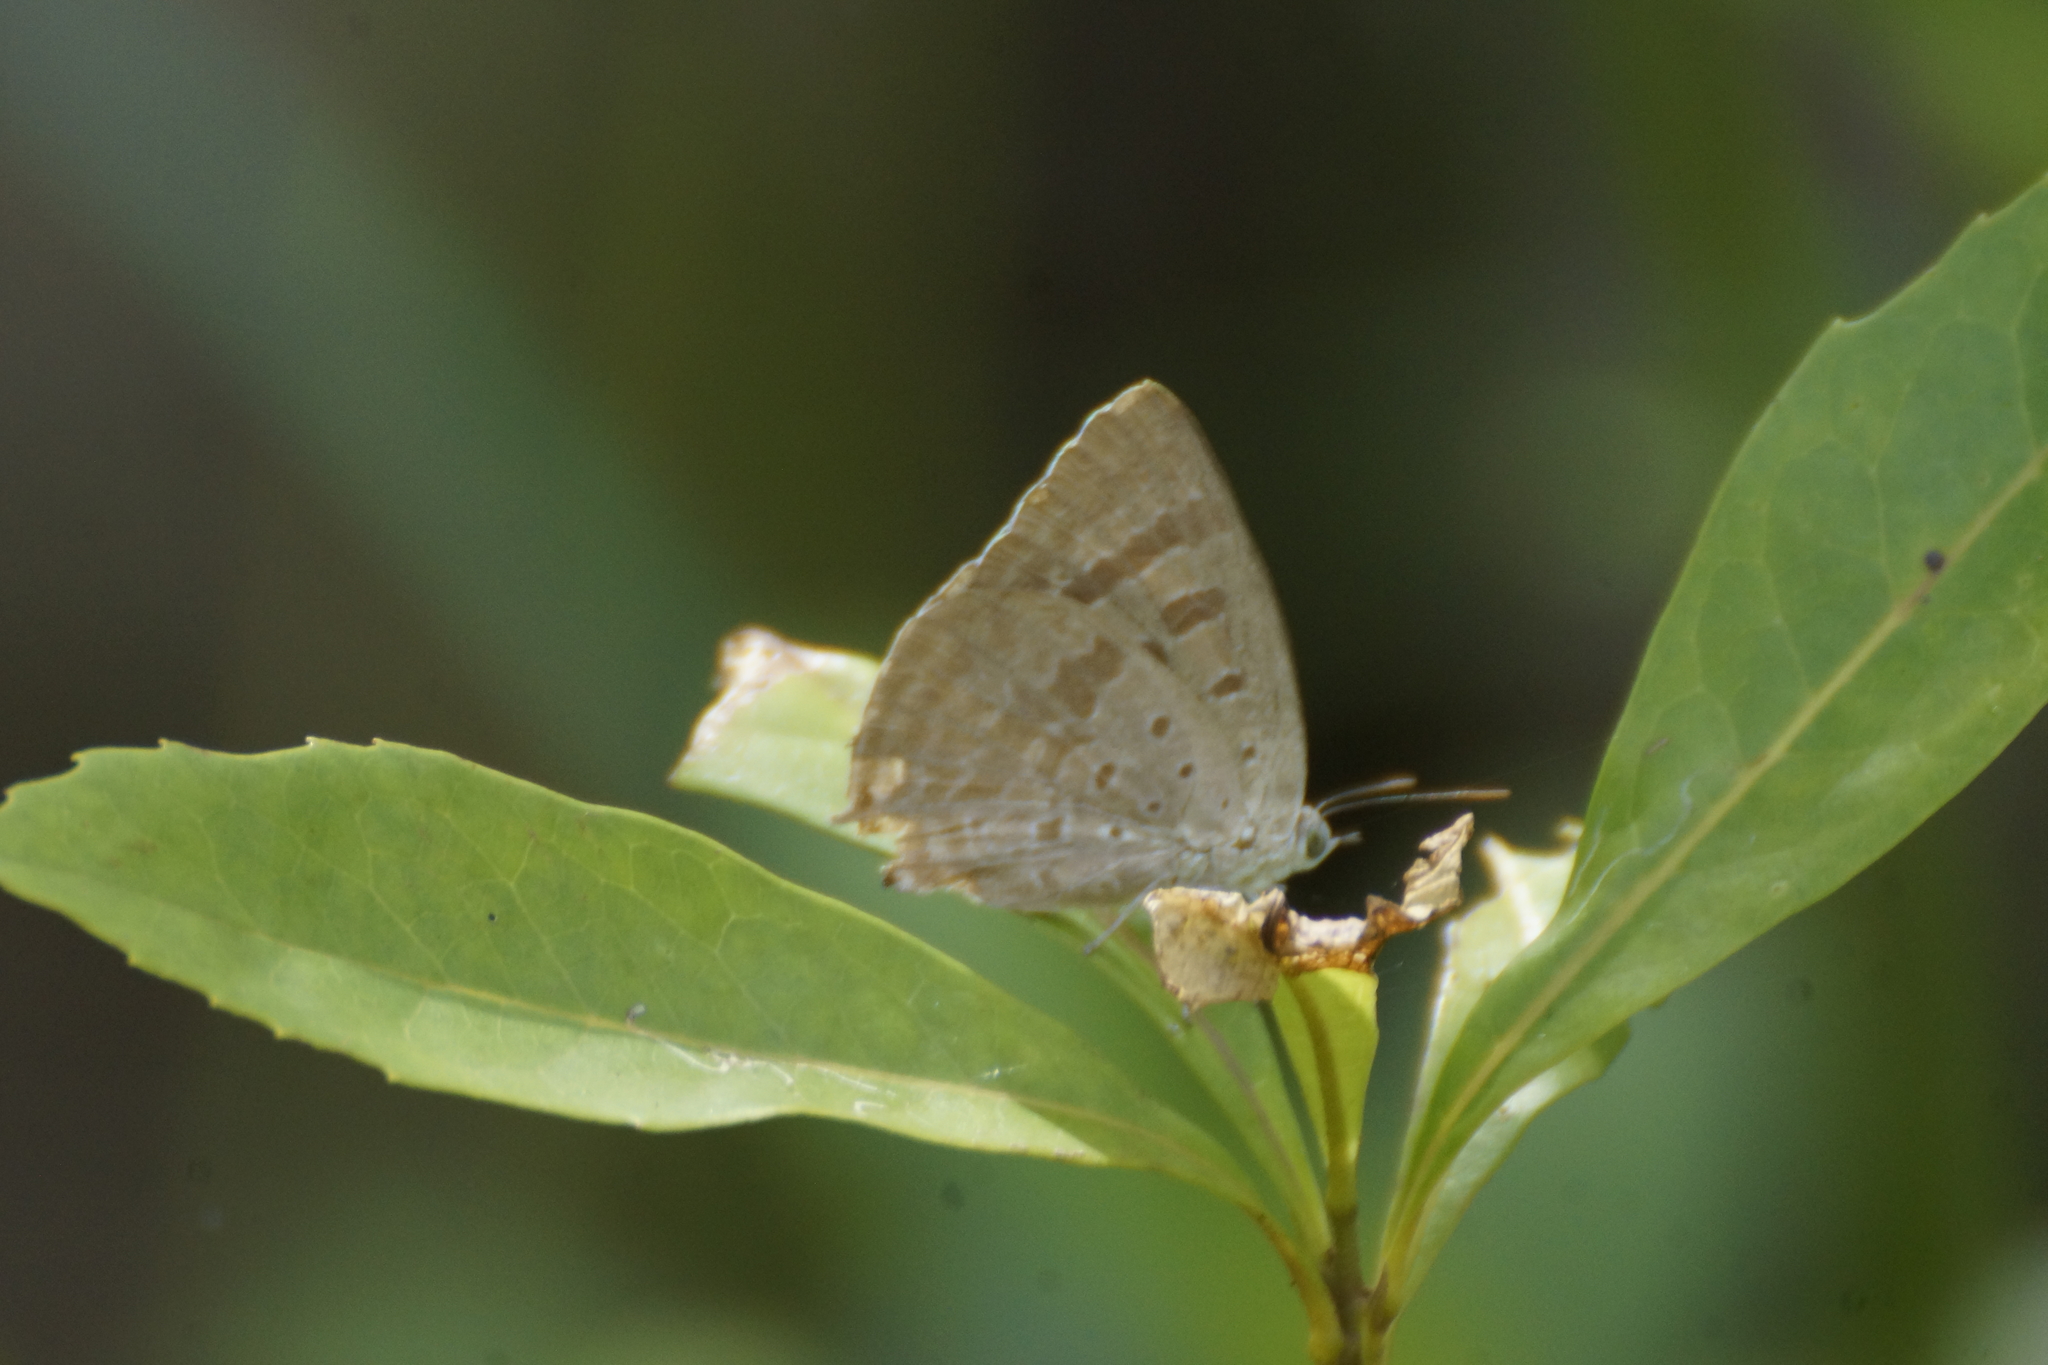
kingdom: Animalia
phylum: Arthropoda
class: Insecta
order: Lepidoptera
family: Lycaenidae
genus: Arhopala
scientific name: Arhopala
